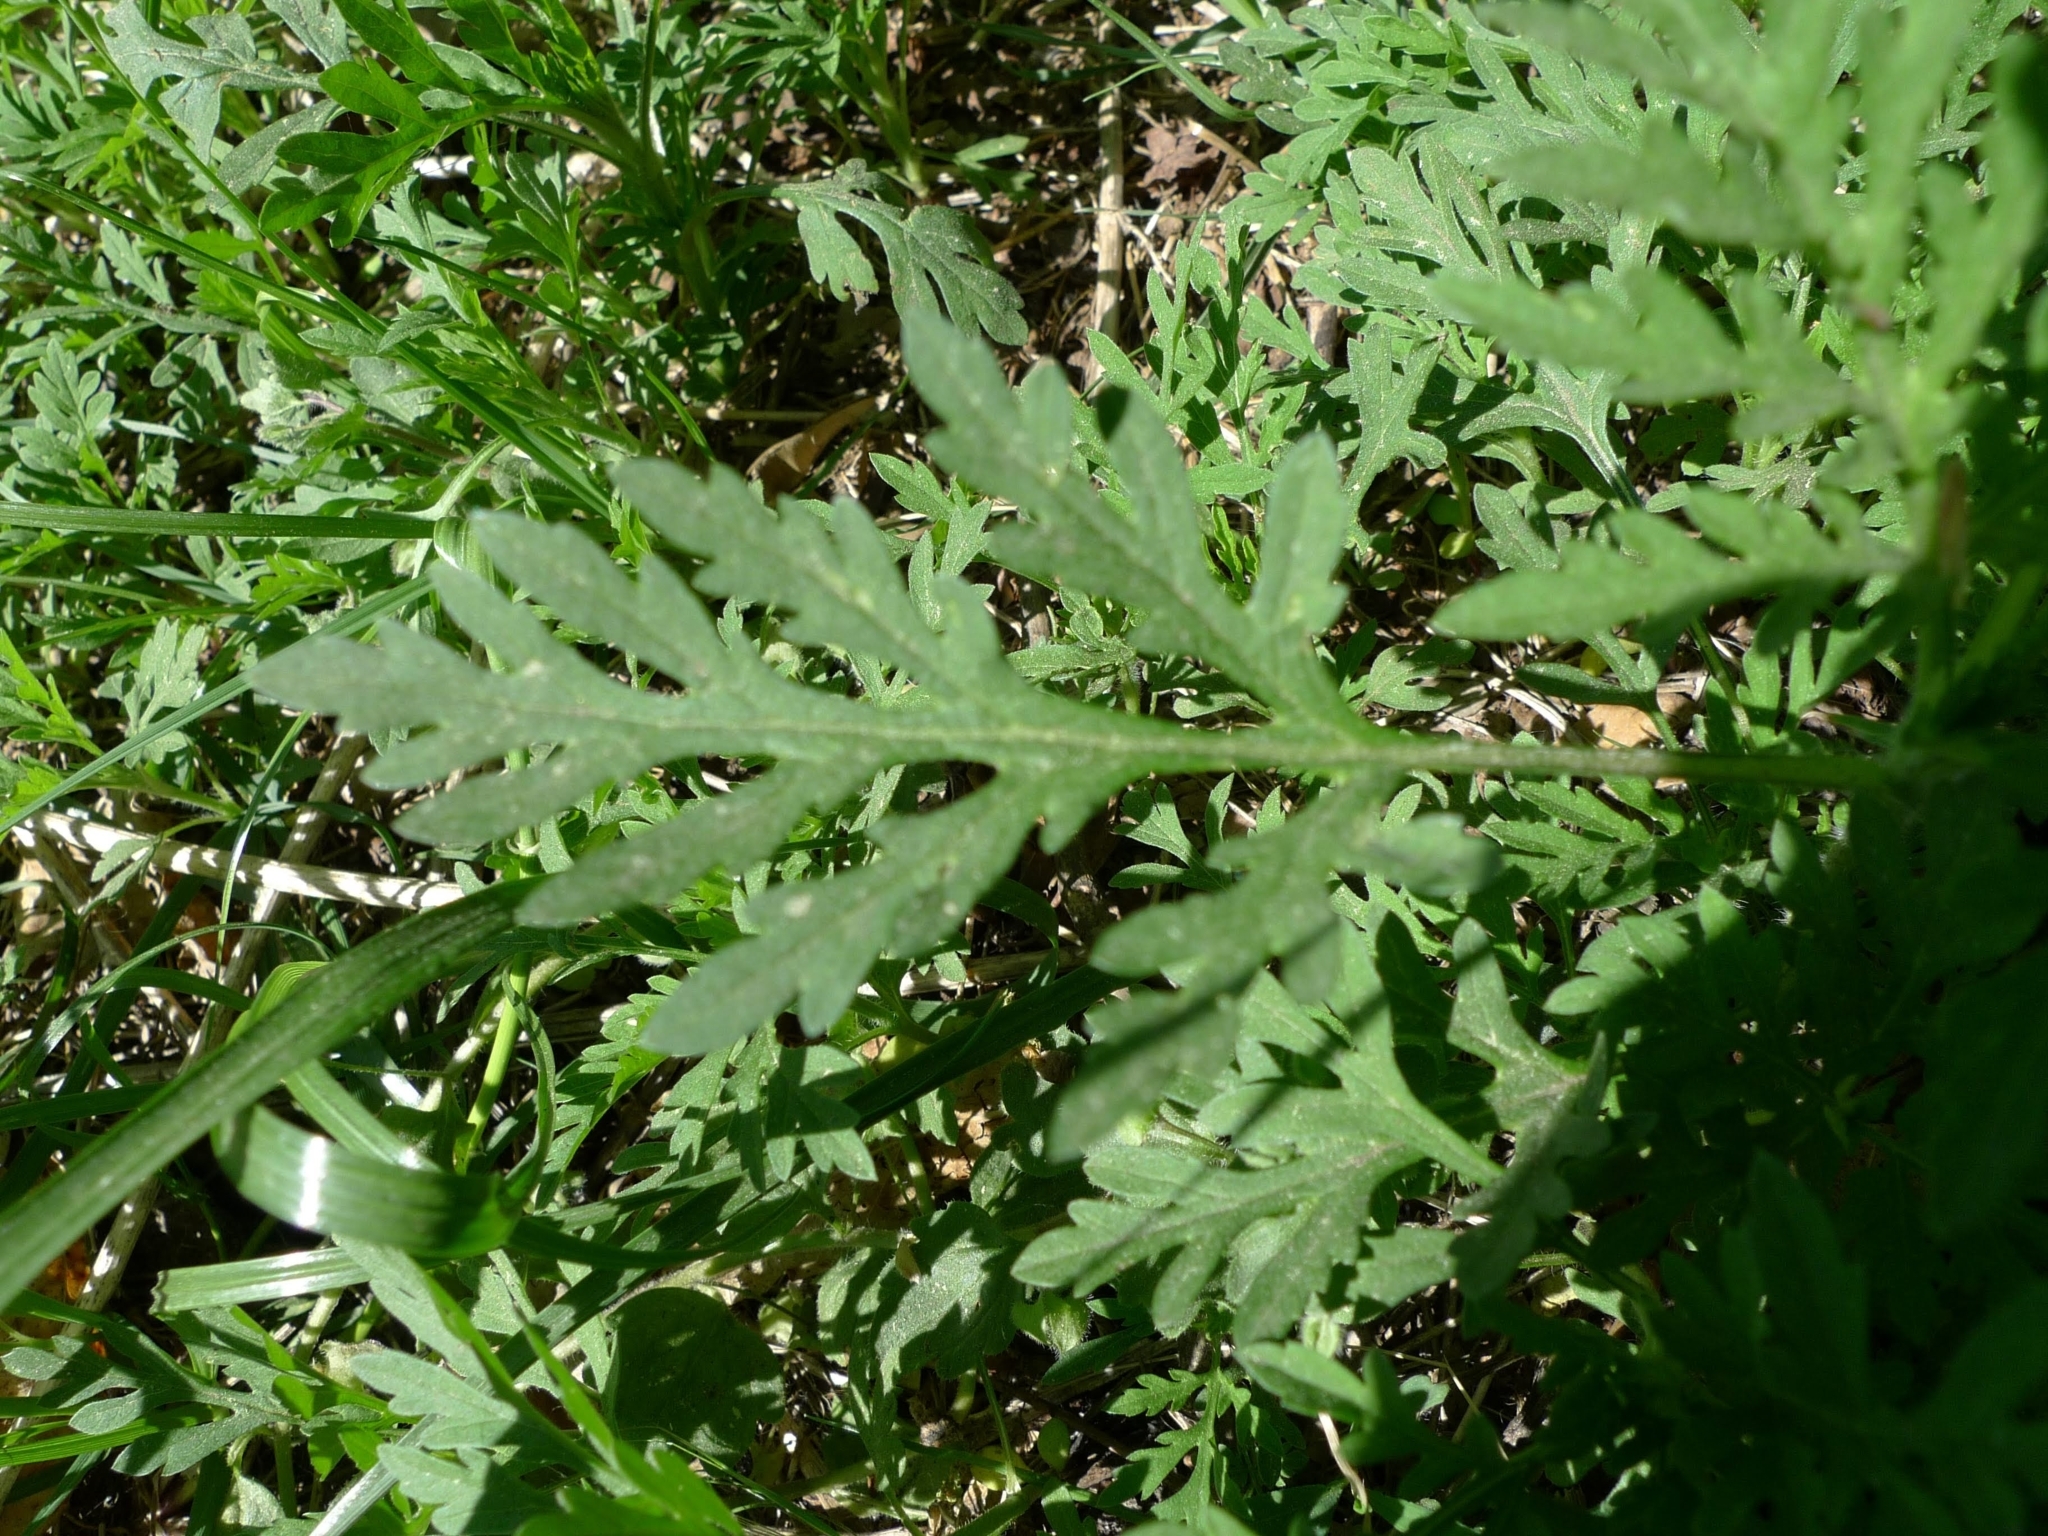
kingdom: Plantae
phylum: Tracheophyta
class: Magnoliopsida
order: Asterales
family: Asteraceae
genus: Ambrosia
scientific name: Ambrosia artemisiifolia
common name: Annual ragweed
